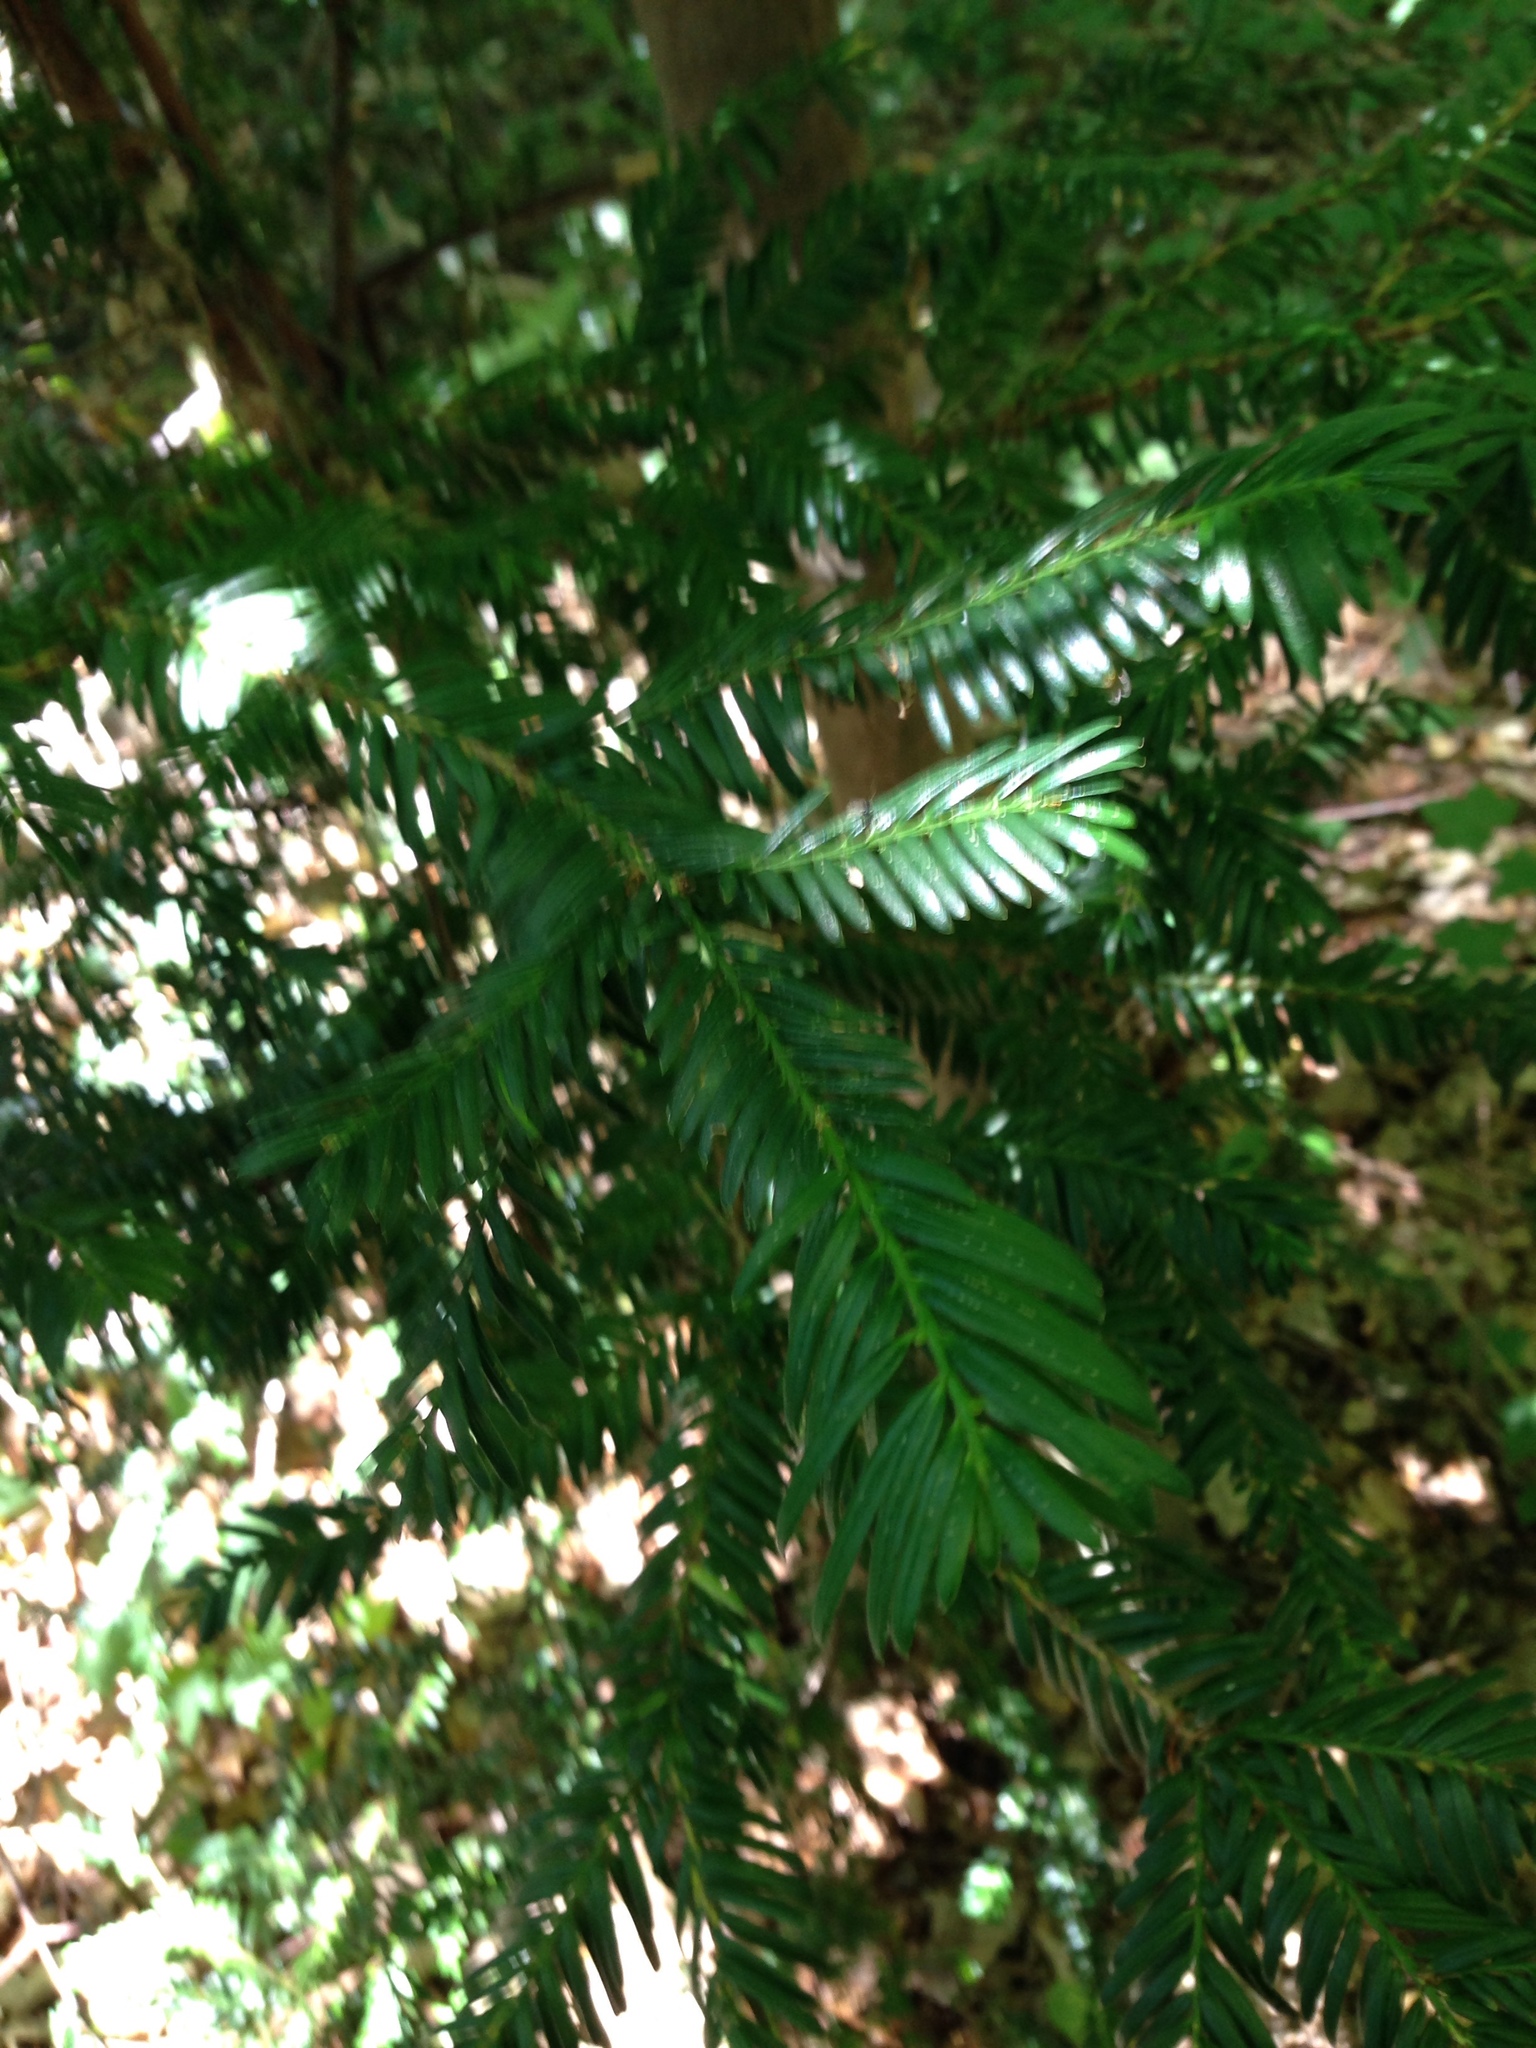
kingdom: Plantae
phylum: Tracheophyta
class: Pinopsida
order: Pinales
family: Taxaceae
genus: Taxus
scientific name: Taxus baccata
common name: Yew
